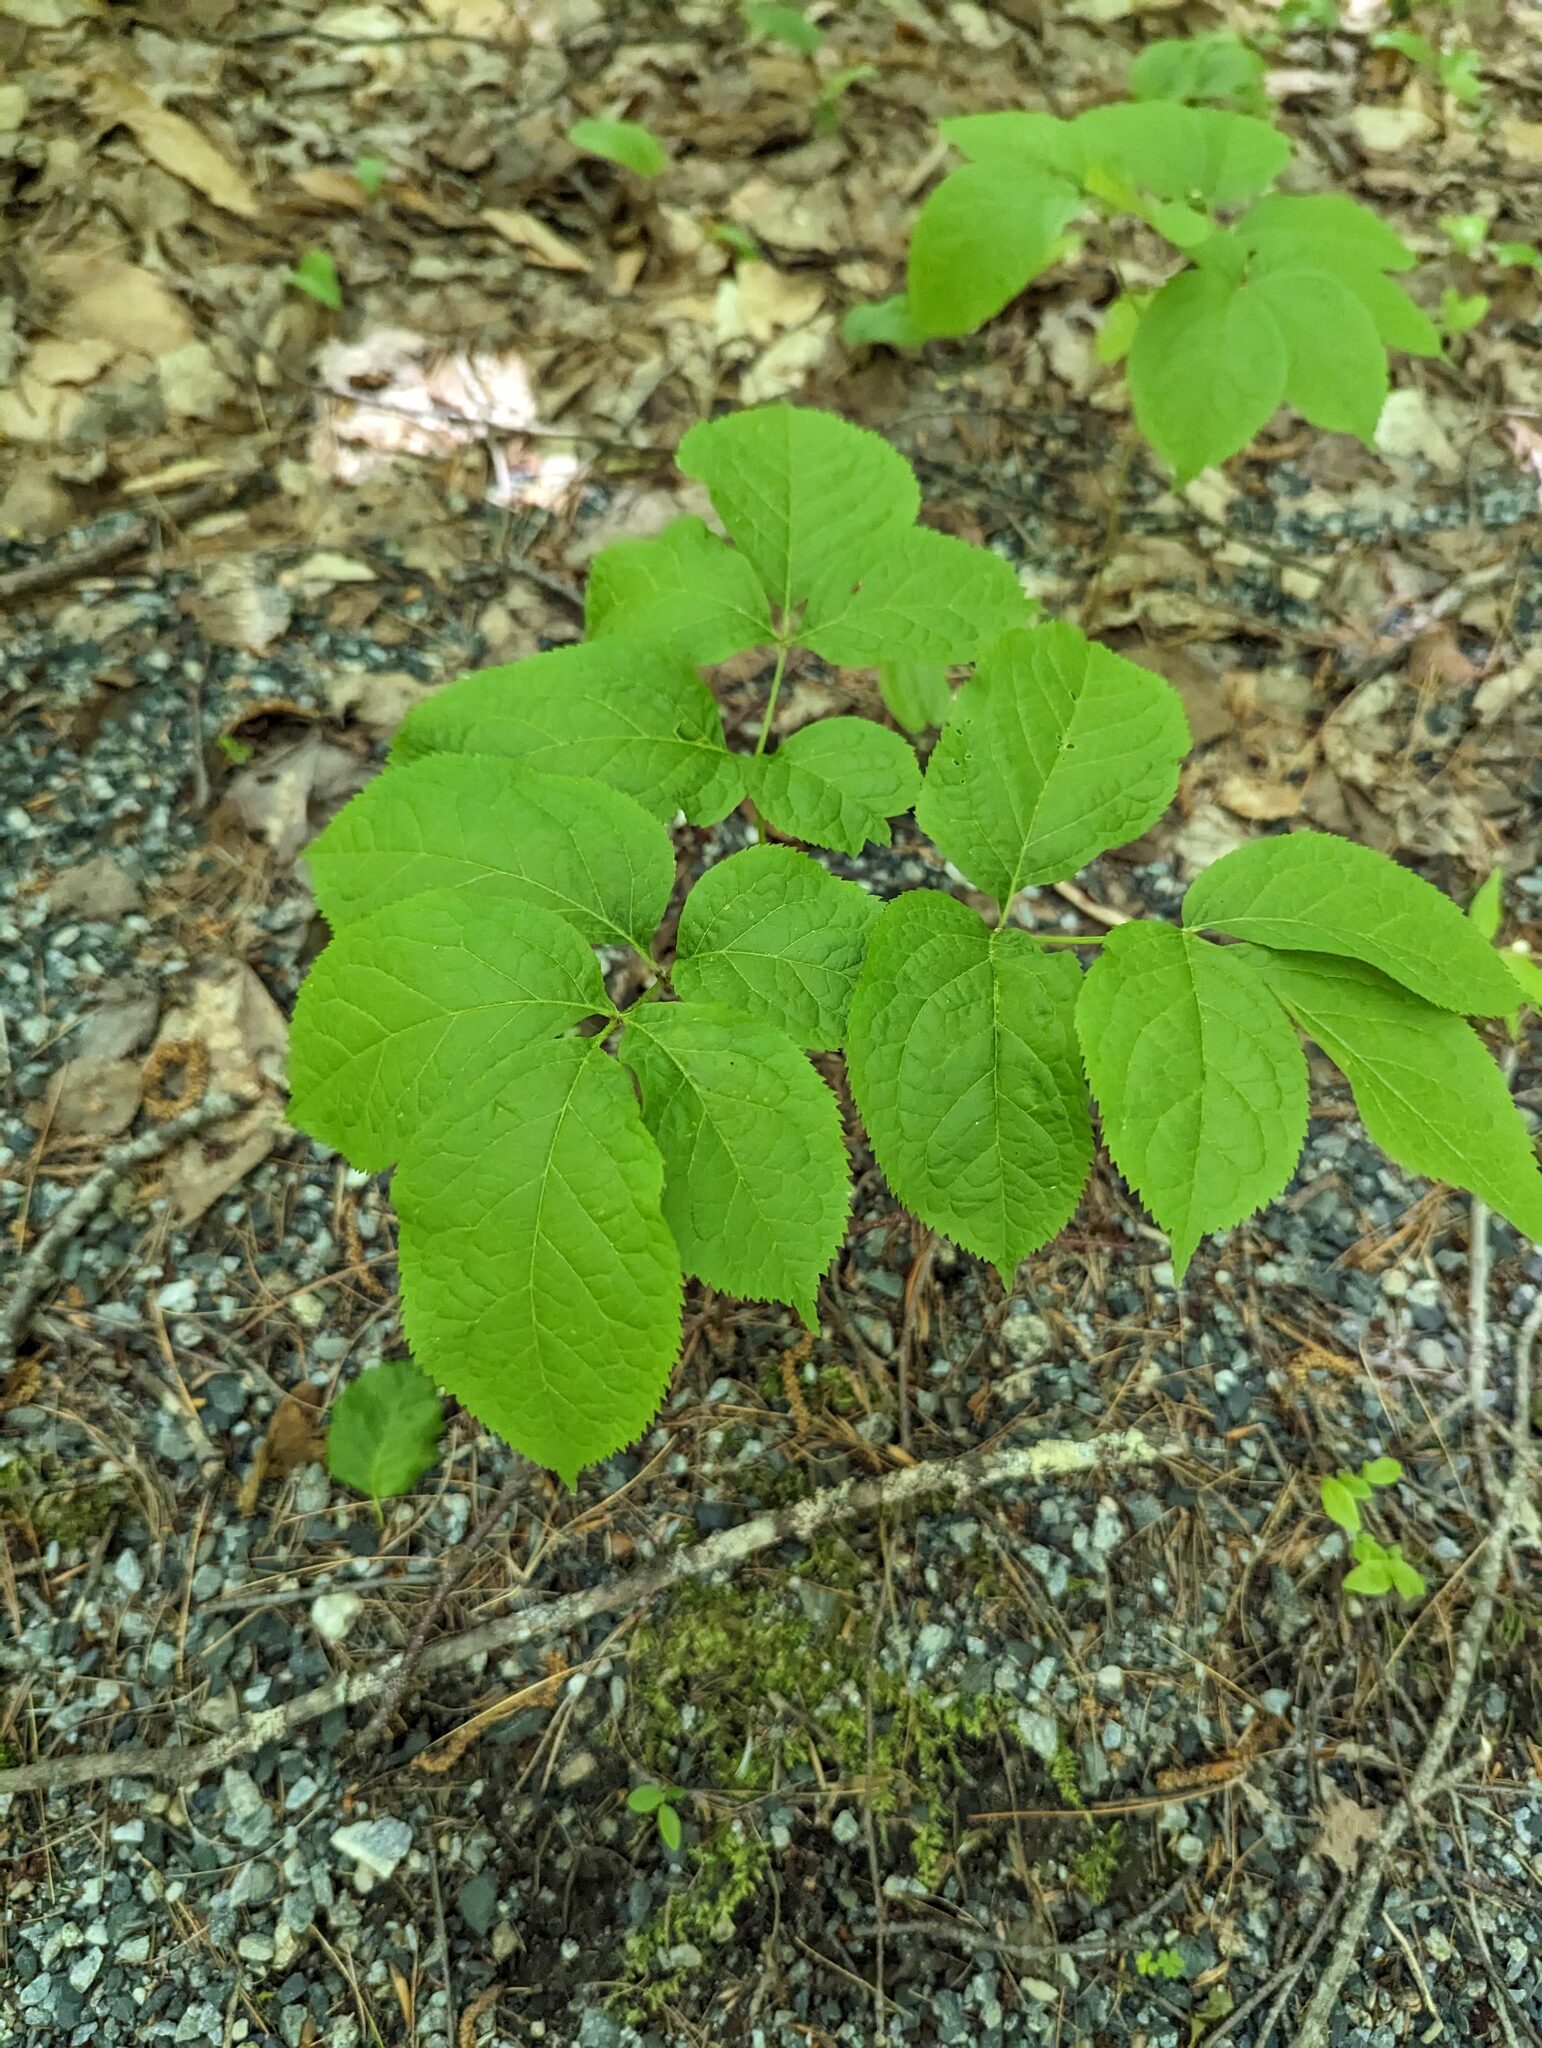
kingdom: Plantae
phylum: Tracheophyta
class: Magnoliopsida
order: Apiales
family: Araliaceae
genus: Aralia
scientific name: Aralia nudicaulis
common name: Wild sarsaparilla
